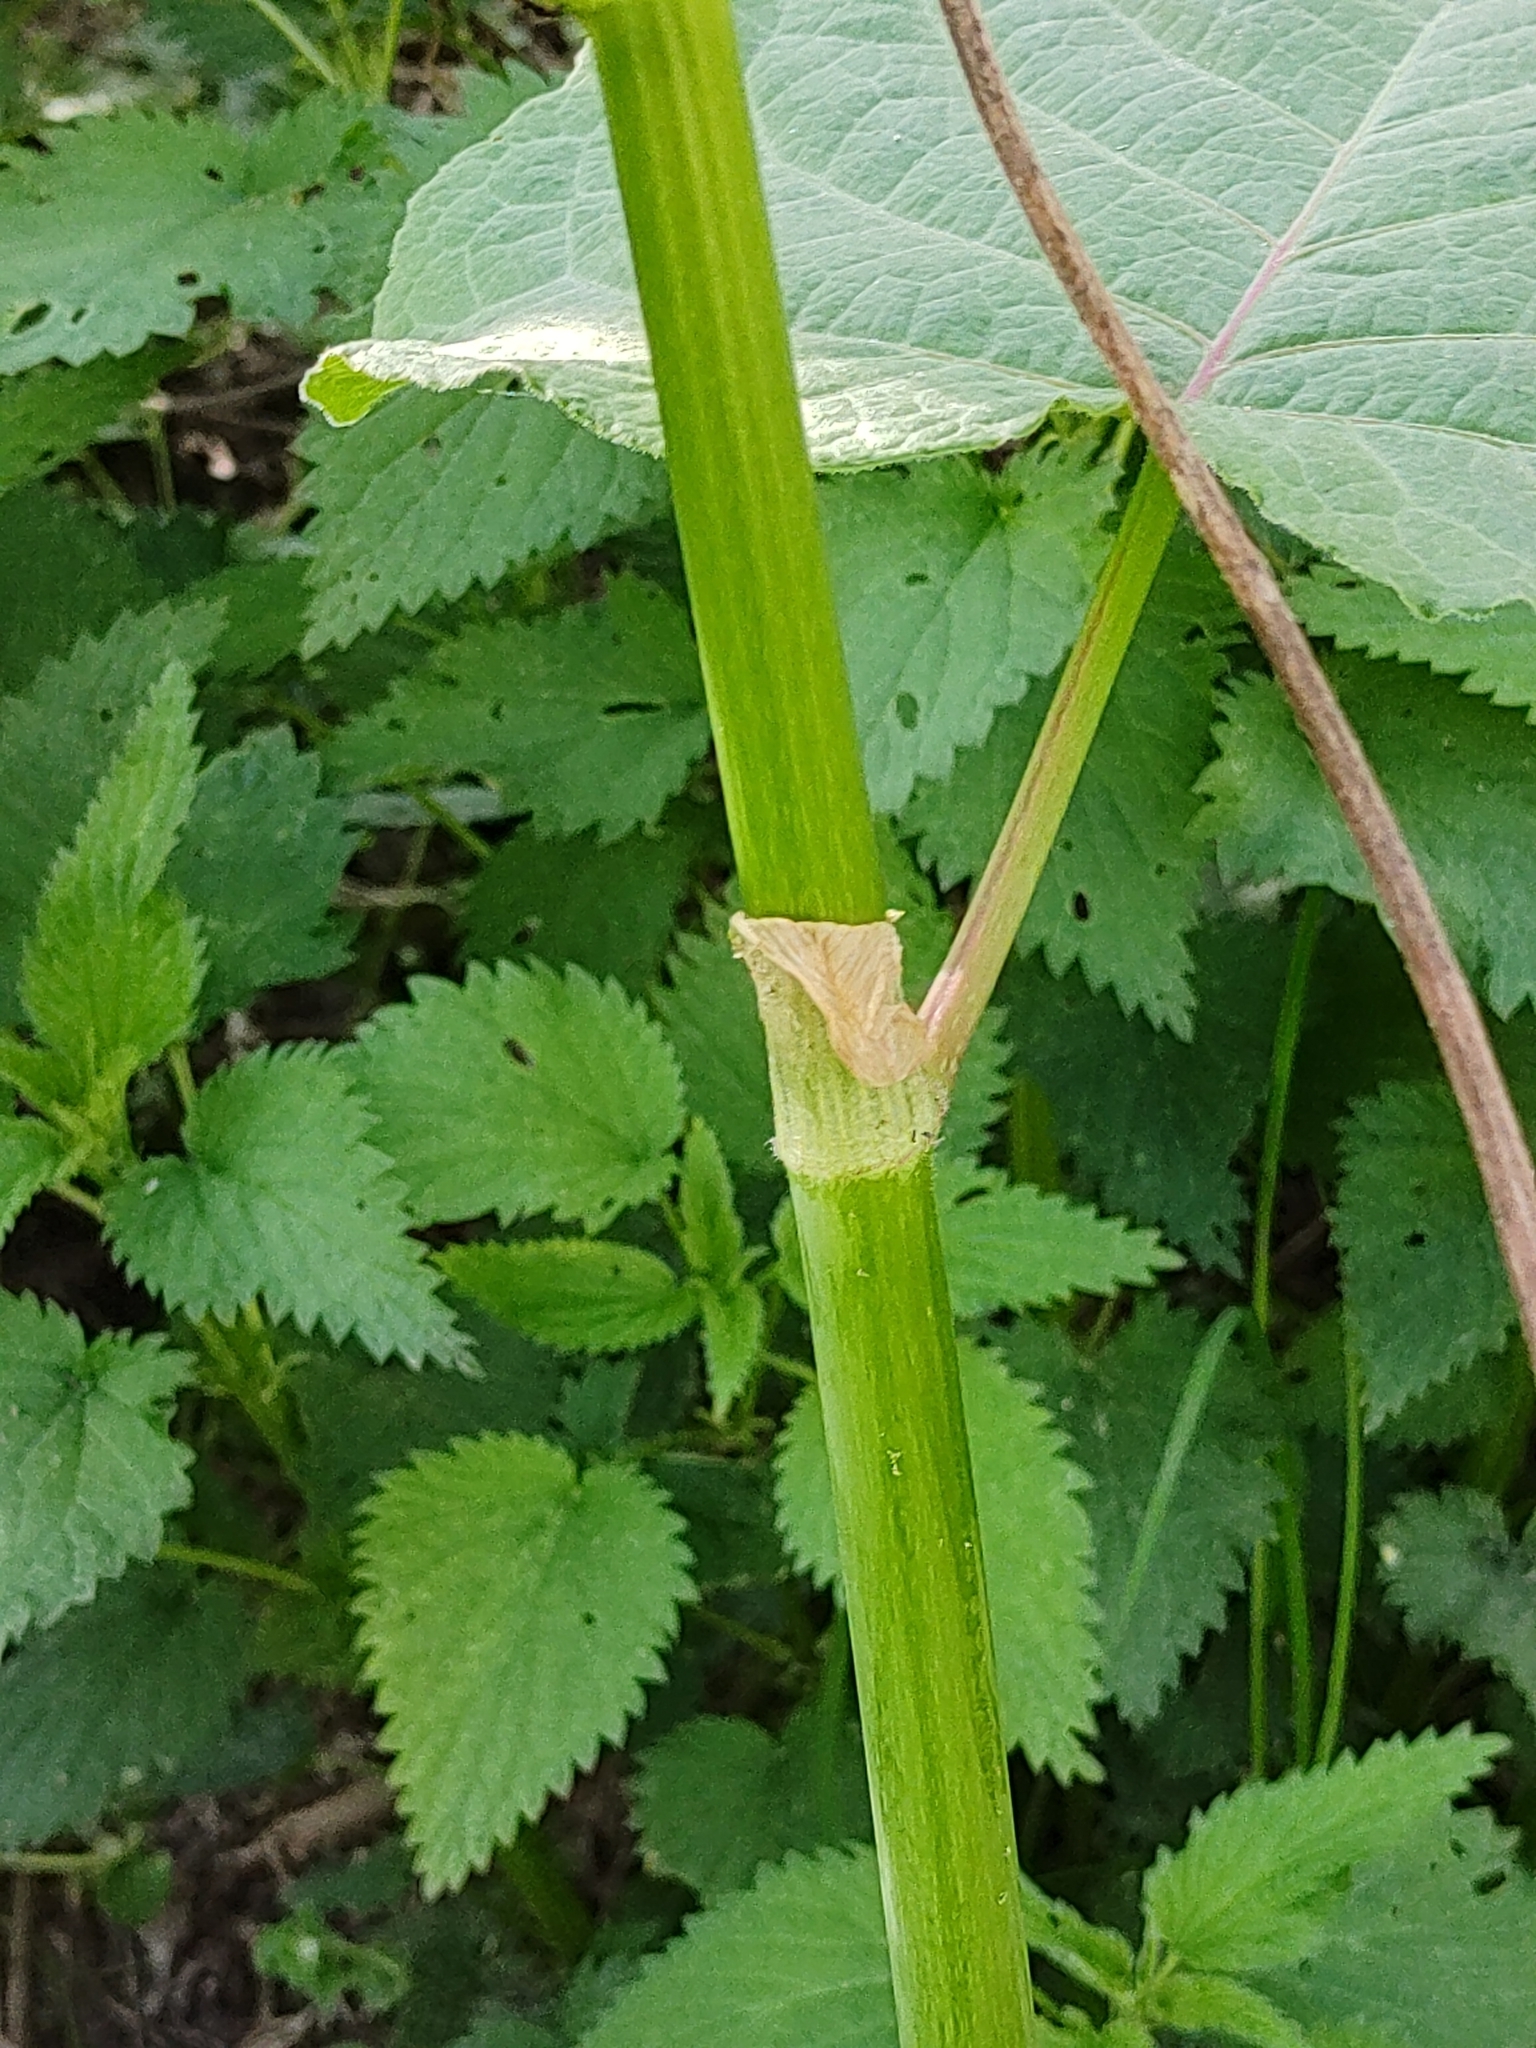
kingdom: Plantae
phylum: Tracheophyta
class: Magnoliopsida
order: Caryophyllales
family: Polygonaceae
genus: Reynoutria
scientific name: Reynoutria sachalinensis
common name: Giant knotweed
